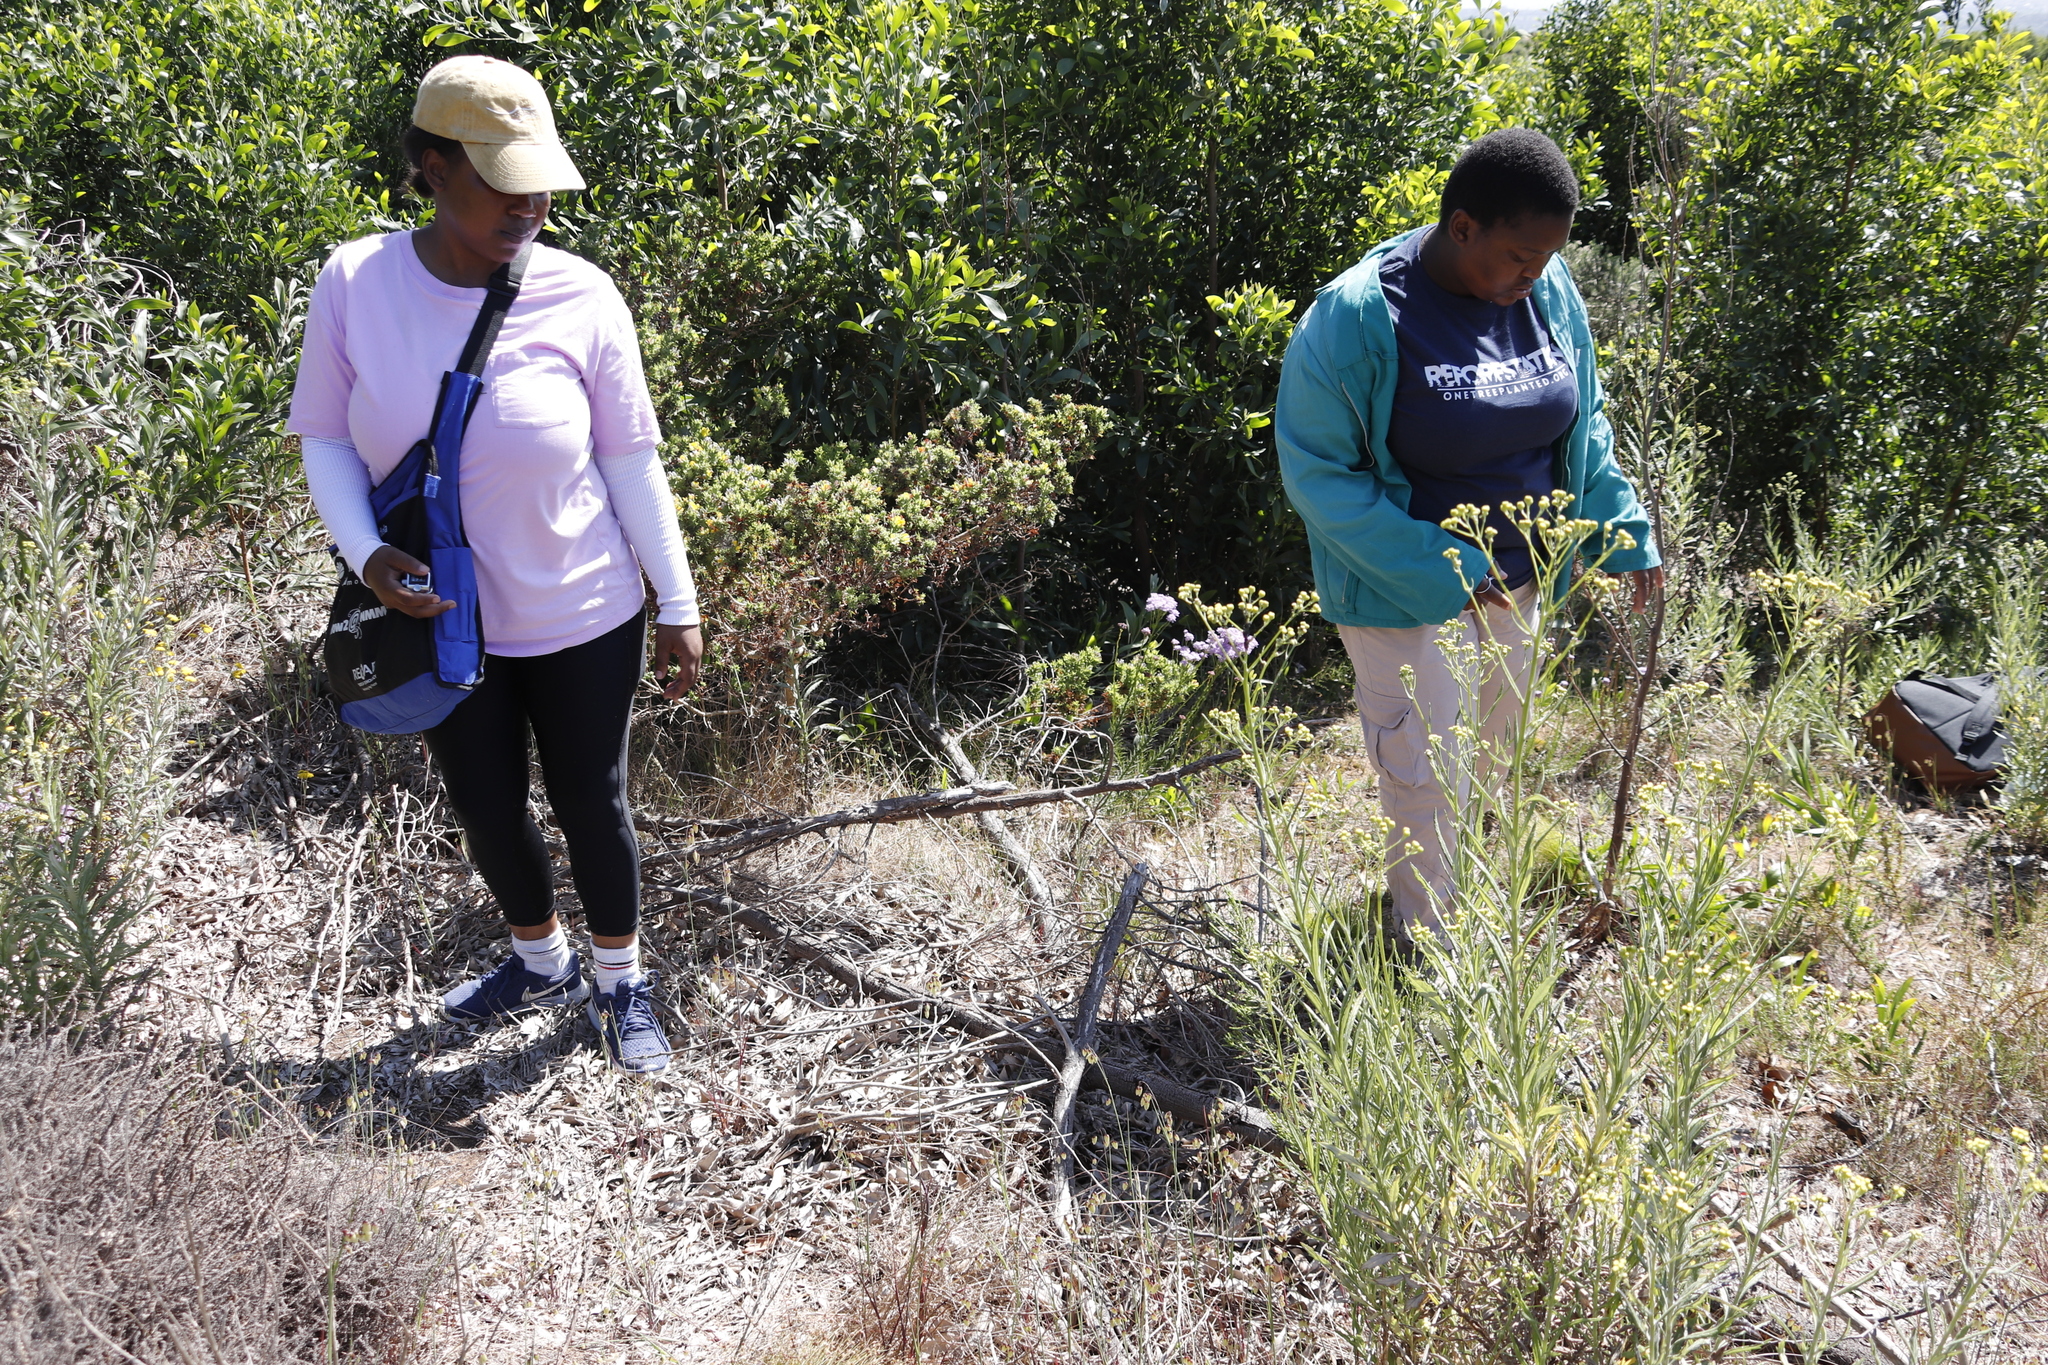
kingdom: Plantae
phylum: Tracheophyta
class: Magnoliopsida
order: Asterales
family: Asteraceae
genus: Senecio
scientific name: Senecio pterophorus
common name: Shoddy ragwort
